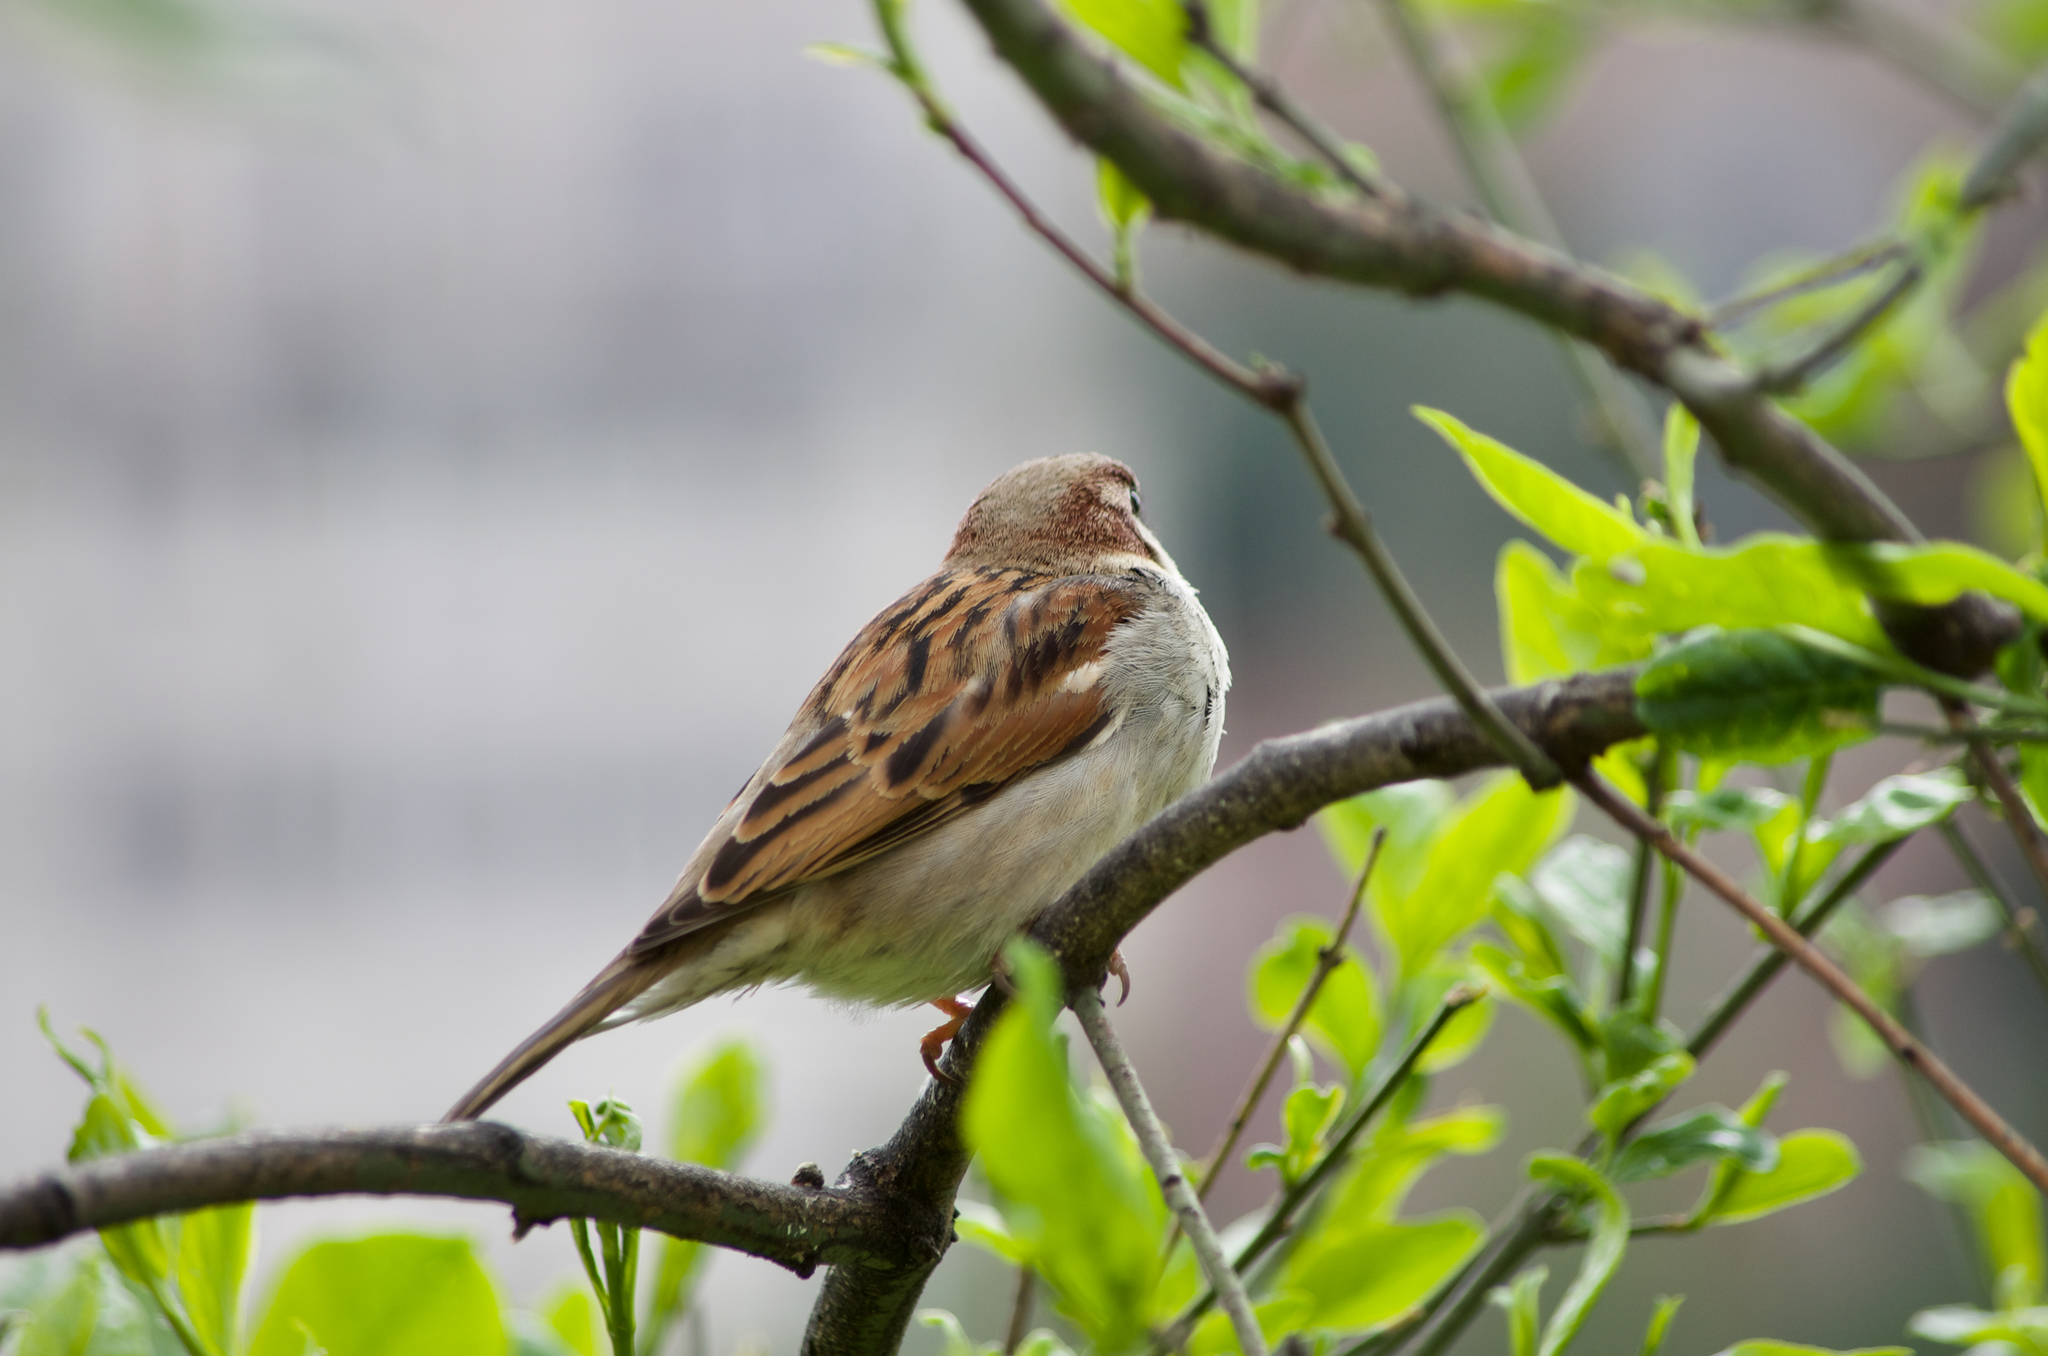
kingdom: Animalia
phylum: Chordata
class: Aves
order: Passeriformes
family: Passeridae
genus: Passer
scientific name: Passer domesticus
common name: House sparrow
